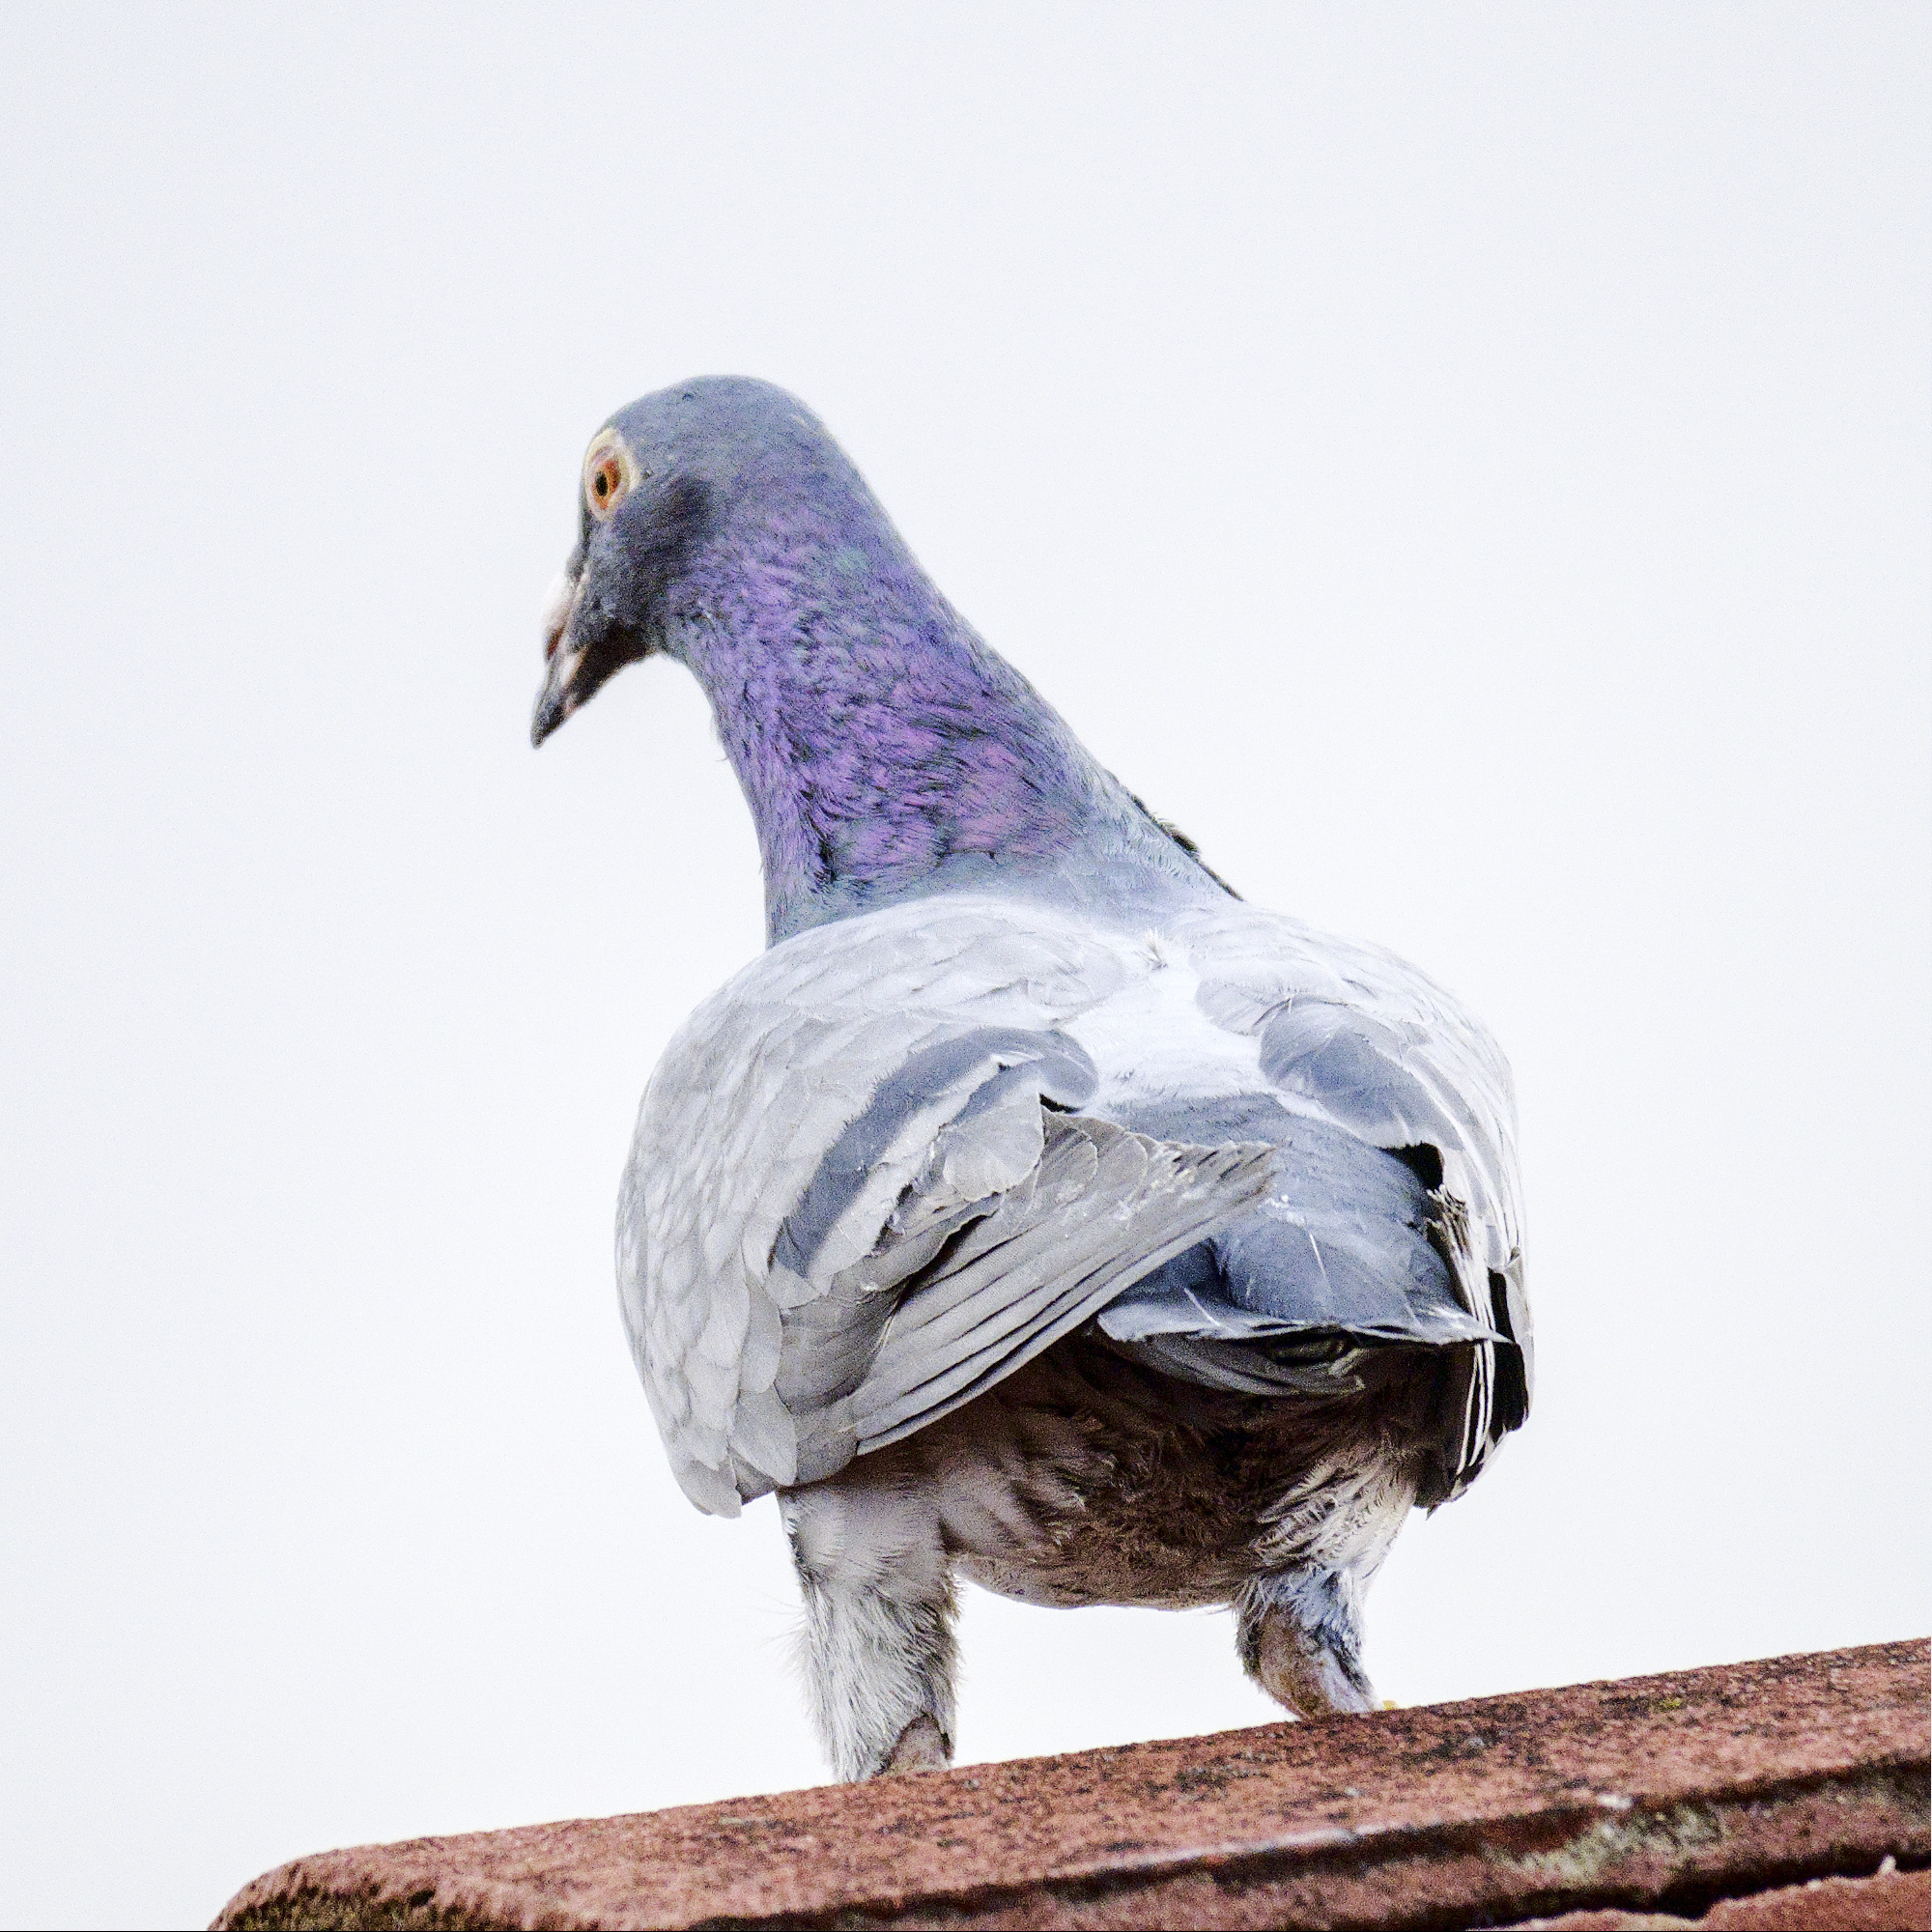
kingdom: Animalia
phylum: Chordata
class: Aves
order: Columbiformes
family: Columbidae
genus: Columba
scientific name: Columba livia
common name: Rock pigeon
